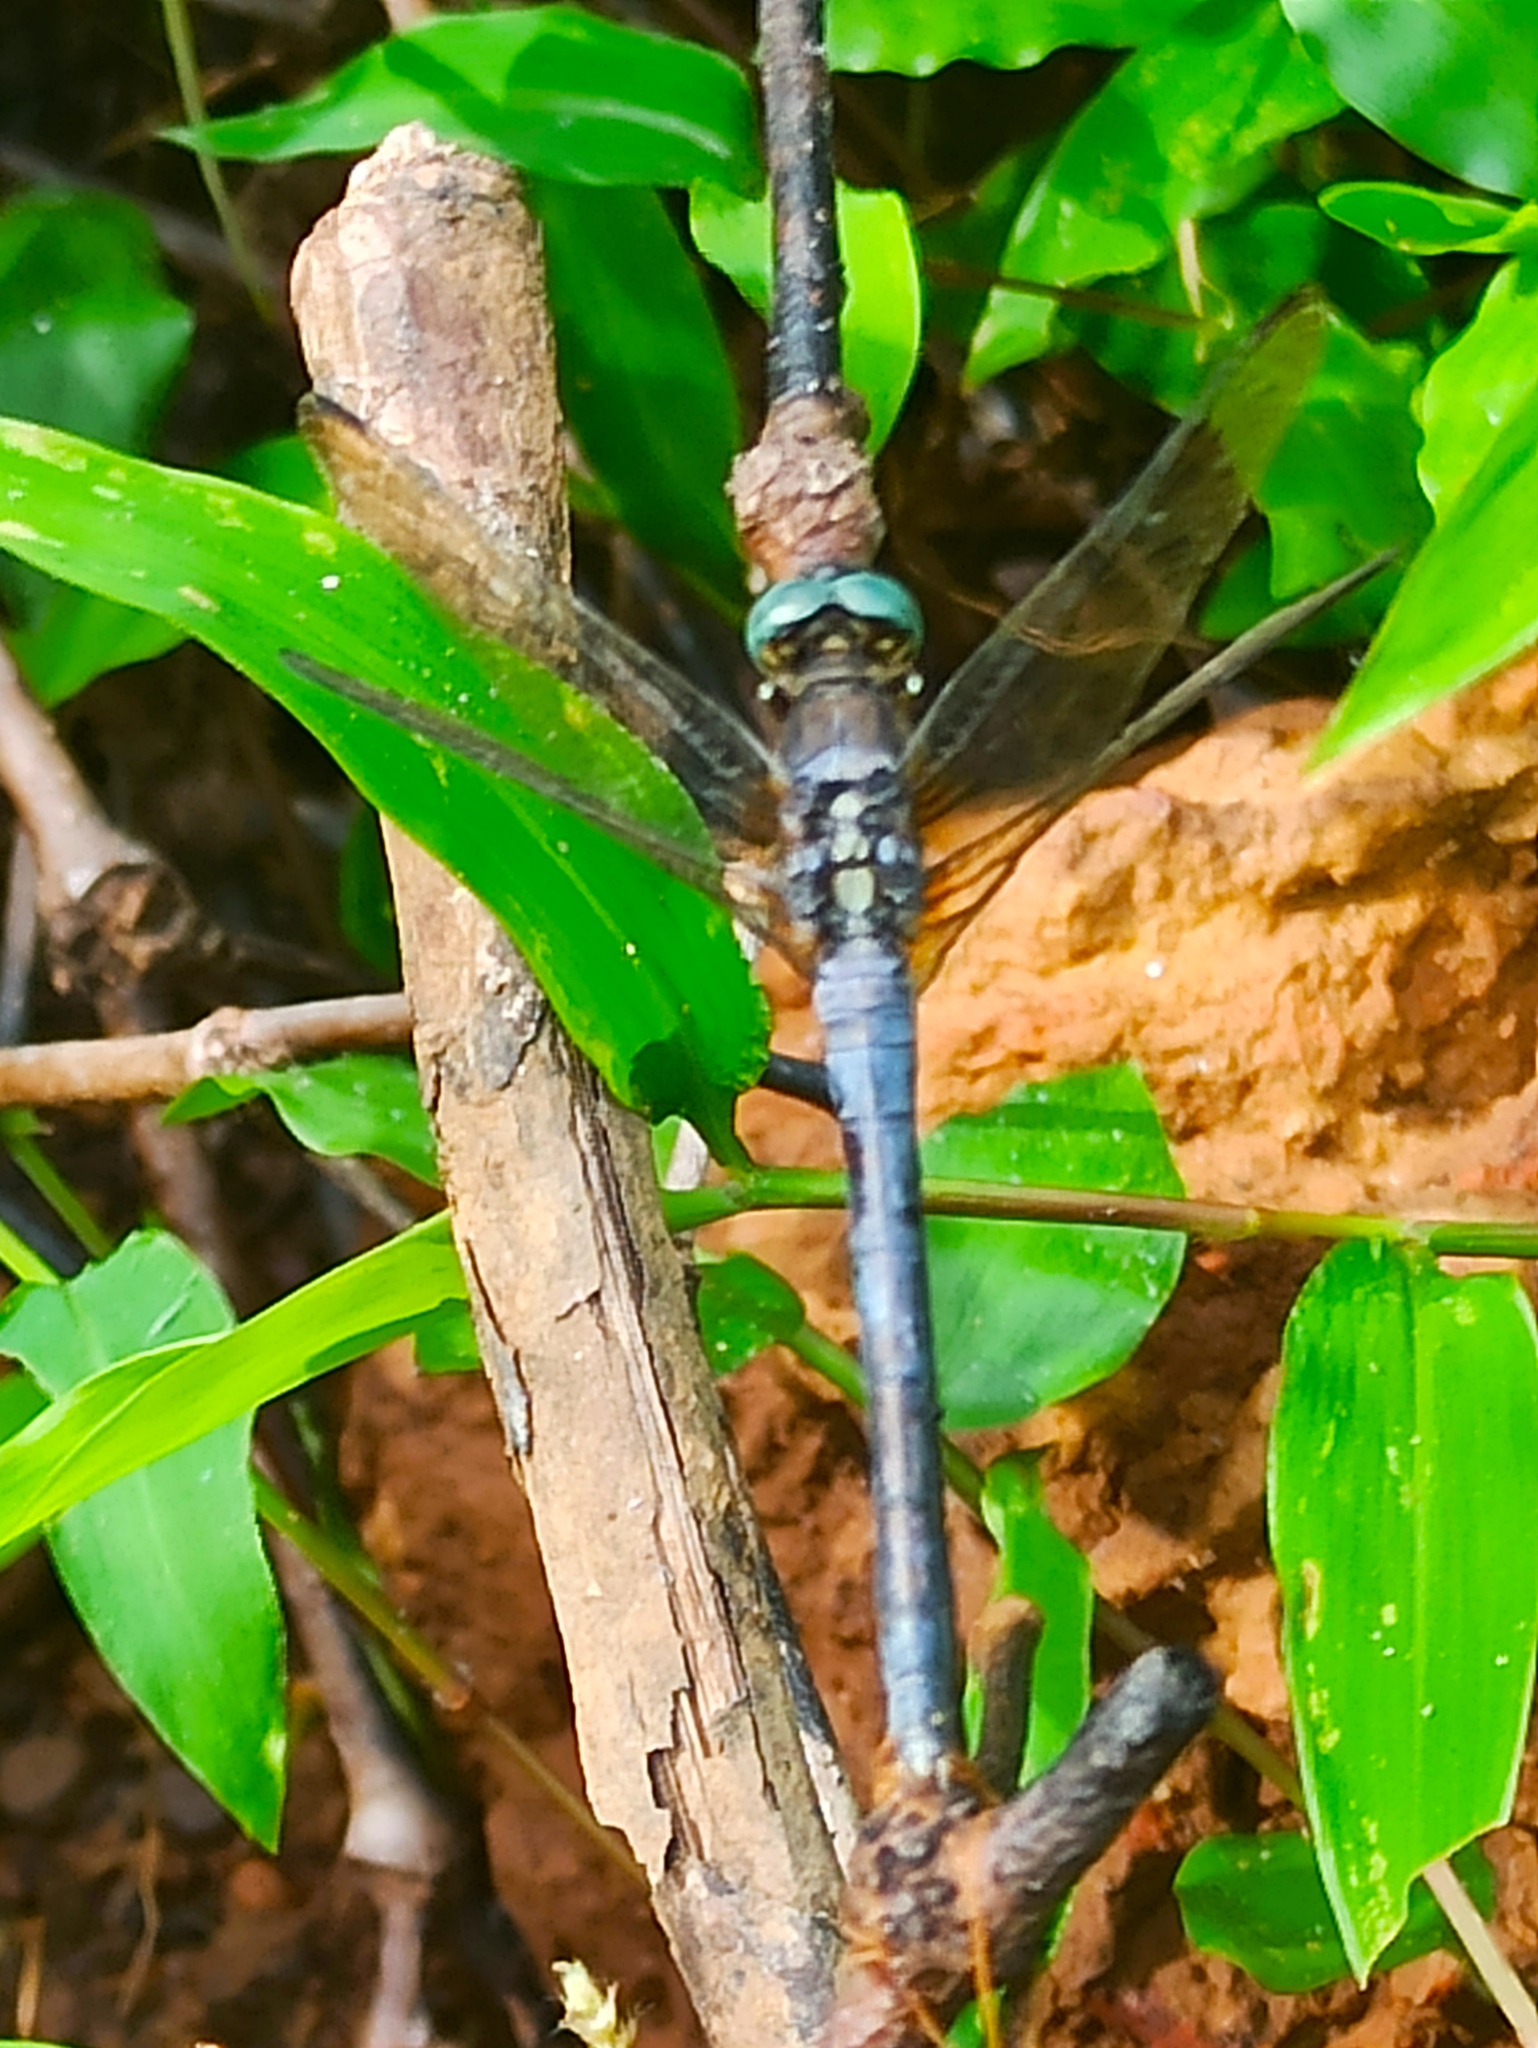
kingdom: Animalia
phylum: Arthropoda
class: Insecta
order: Odonata
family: Libellulidae
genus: Orthetrum
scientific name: Orthetrum luzonicum
